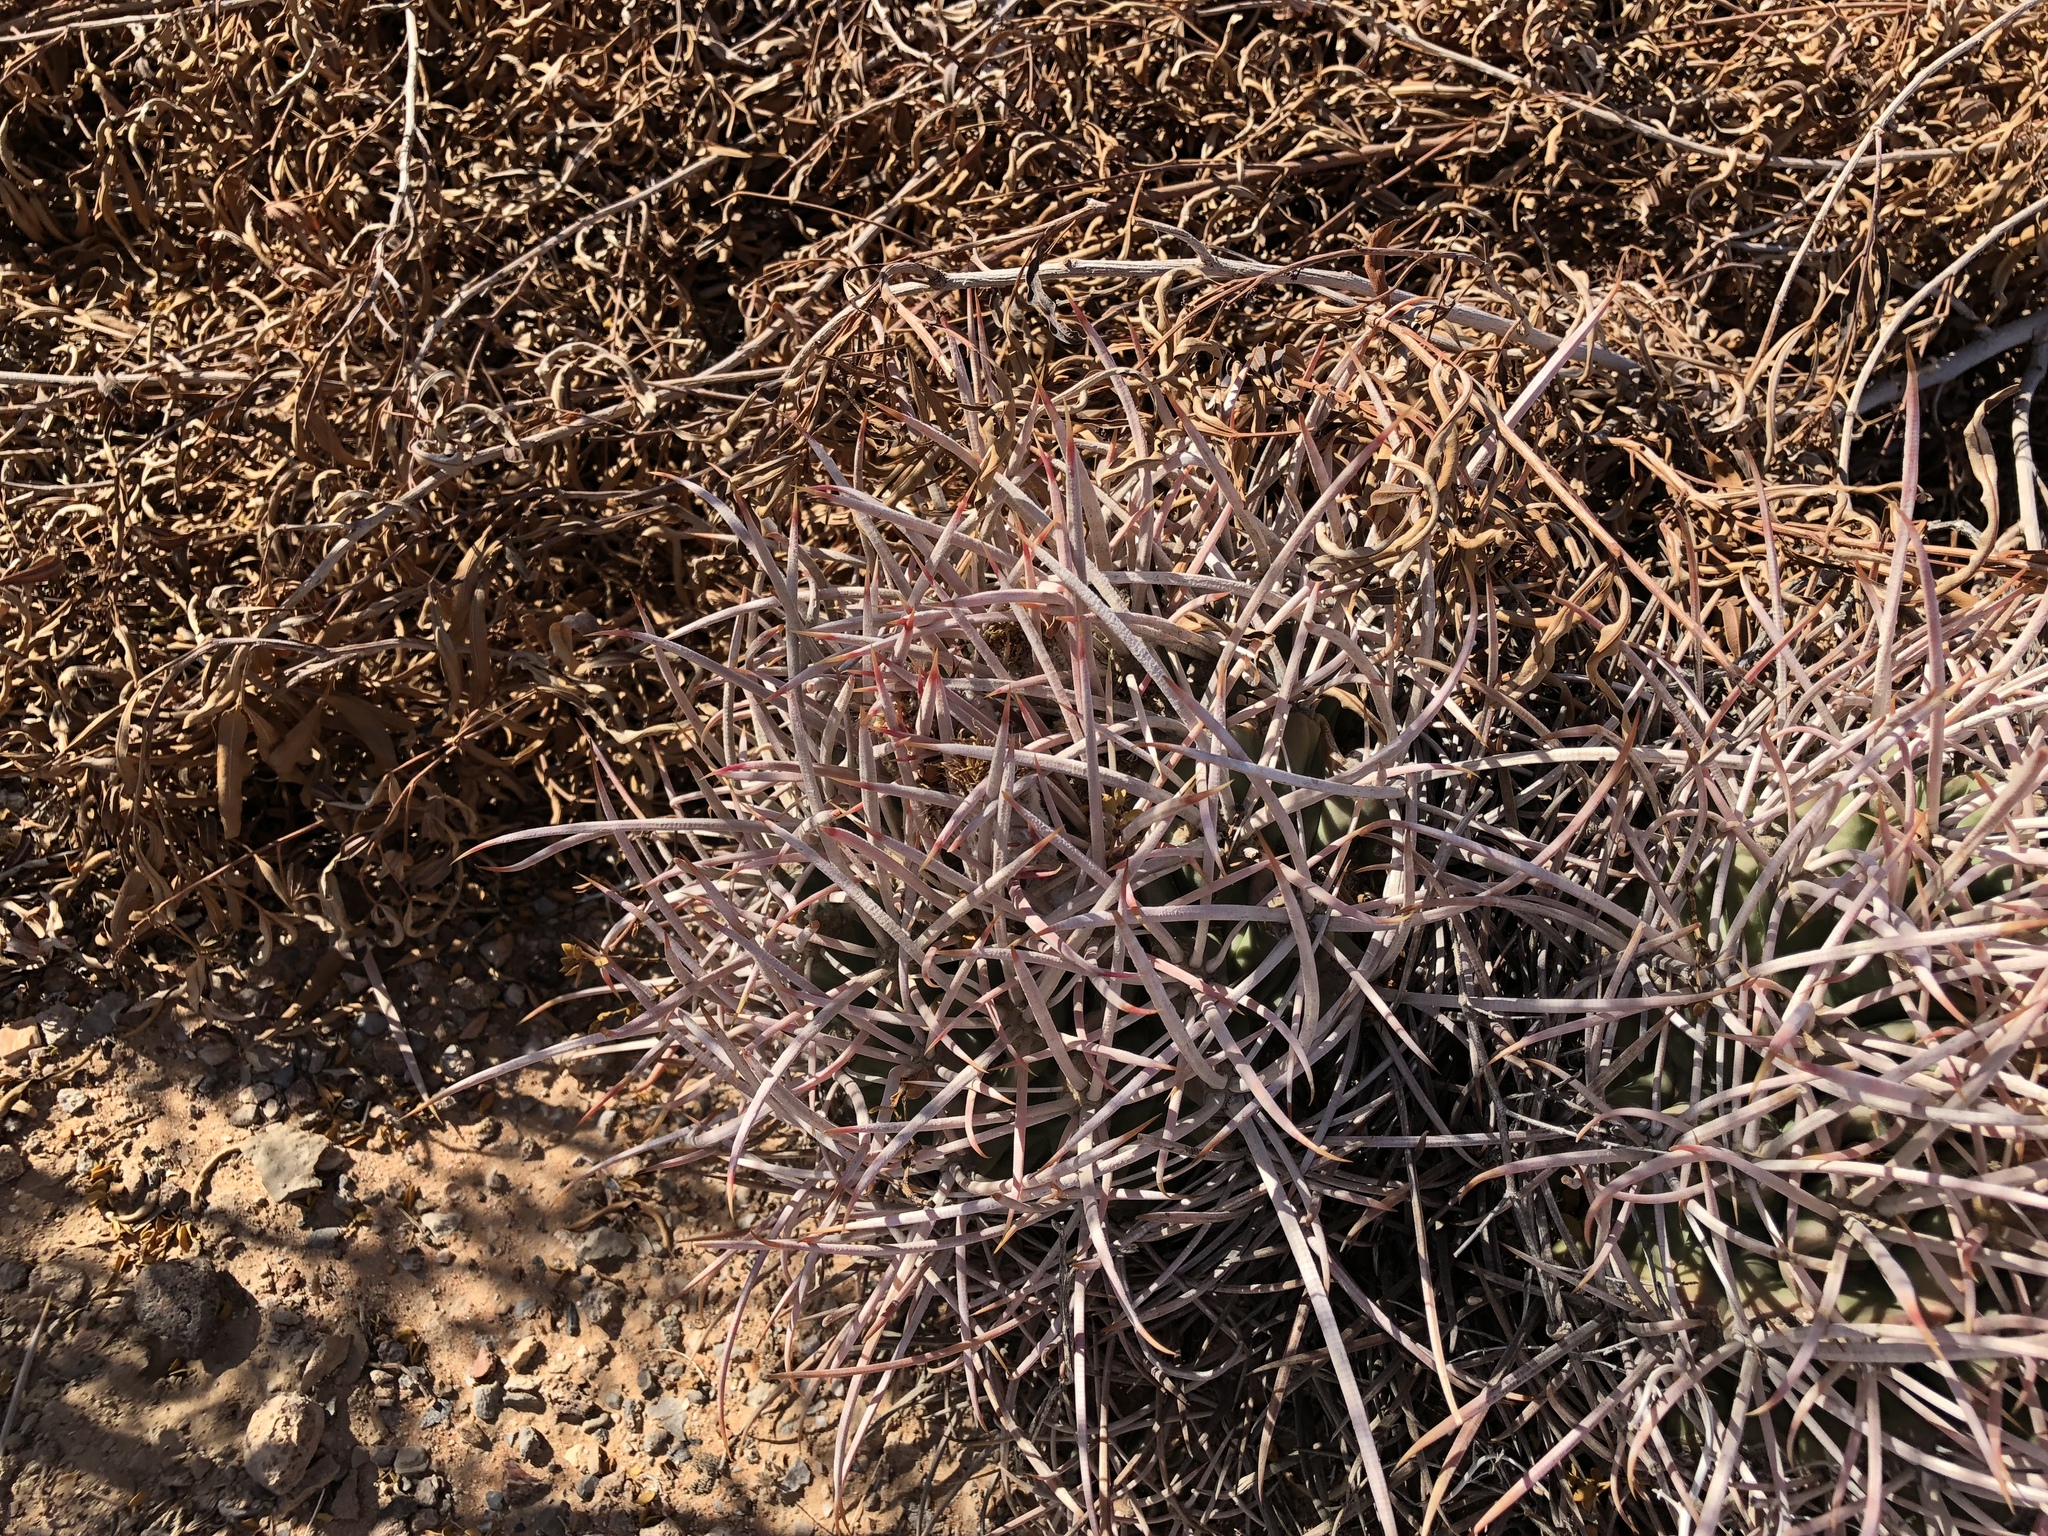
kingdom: Plantae
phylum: Tracheophyta
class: Magnoliopsida
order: Caryophyllales
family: Cactaceae
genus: Echinocactus
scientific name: Echinocactus polycephalus
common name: Cottontop cactus
